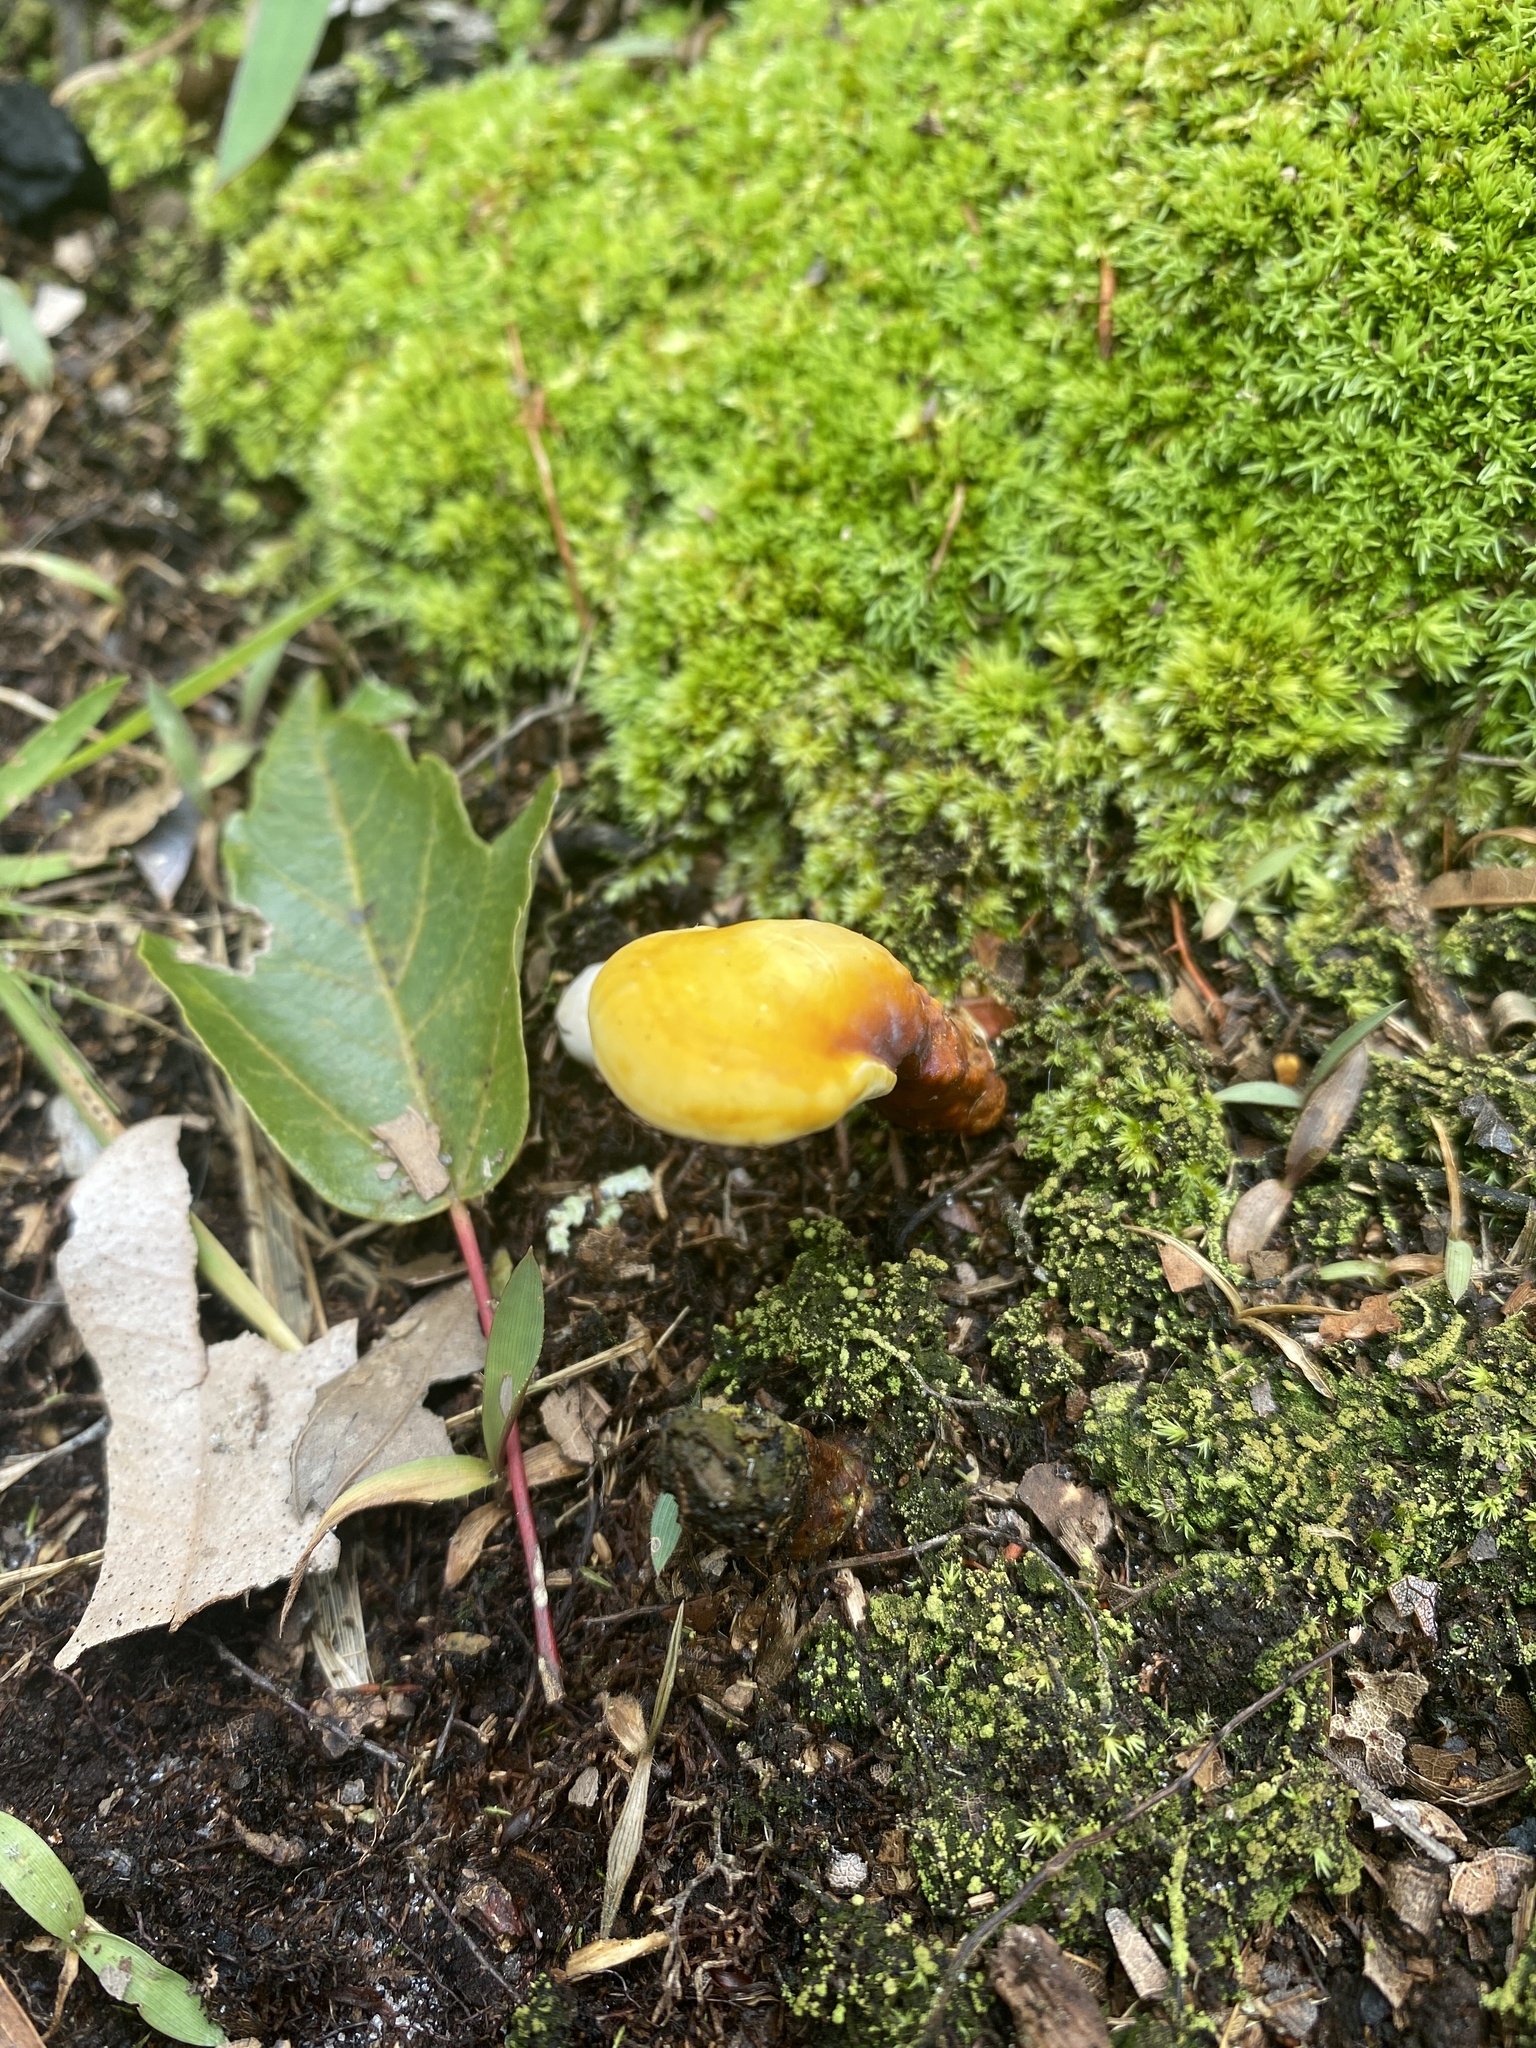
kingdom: Fungi
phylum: Basidiomycota
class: Agaricomycetes
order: Polyporales
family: Polyporaceae
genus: Ganoderma
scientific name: Ganoderma curtisii
